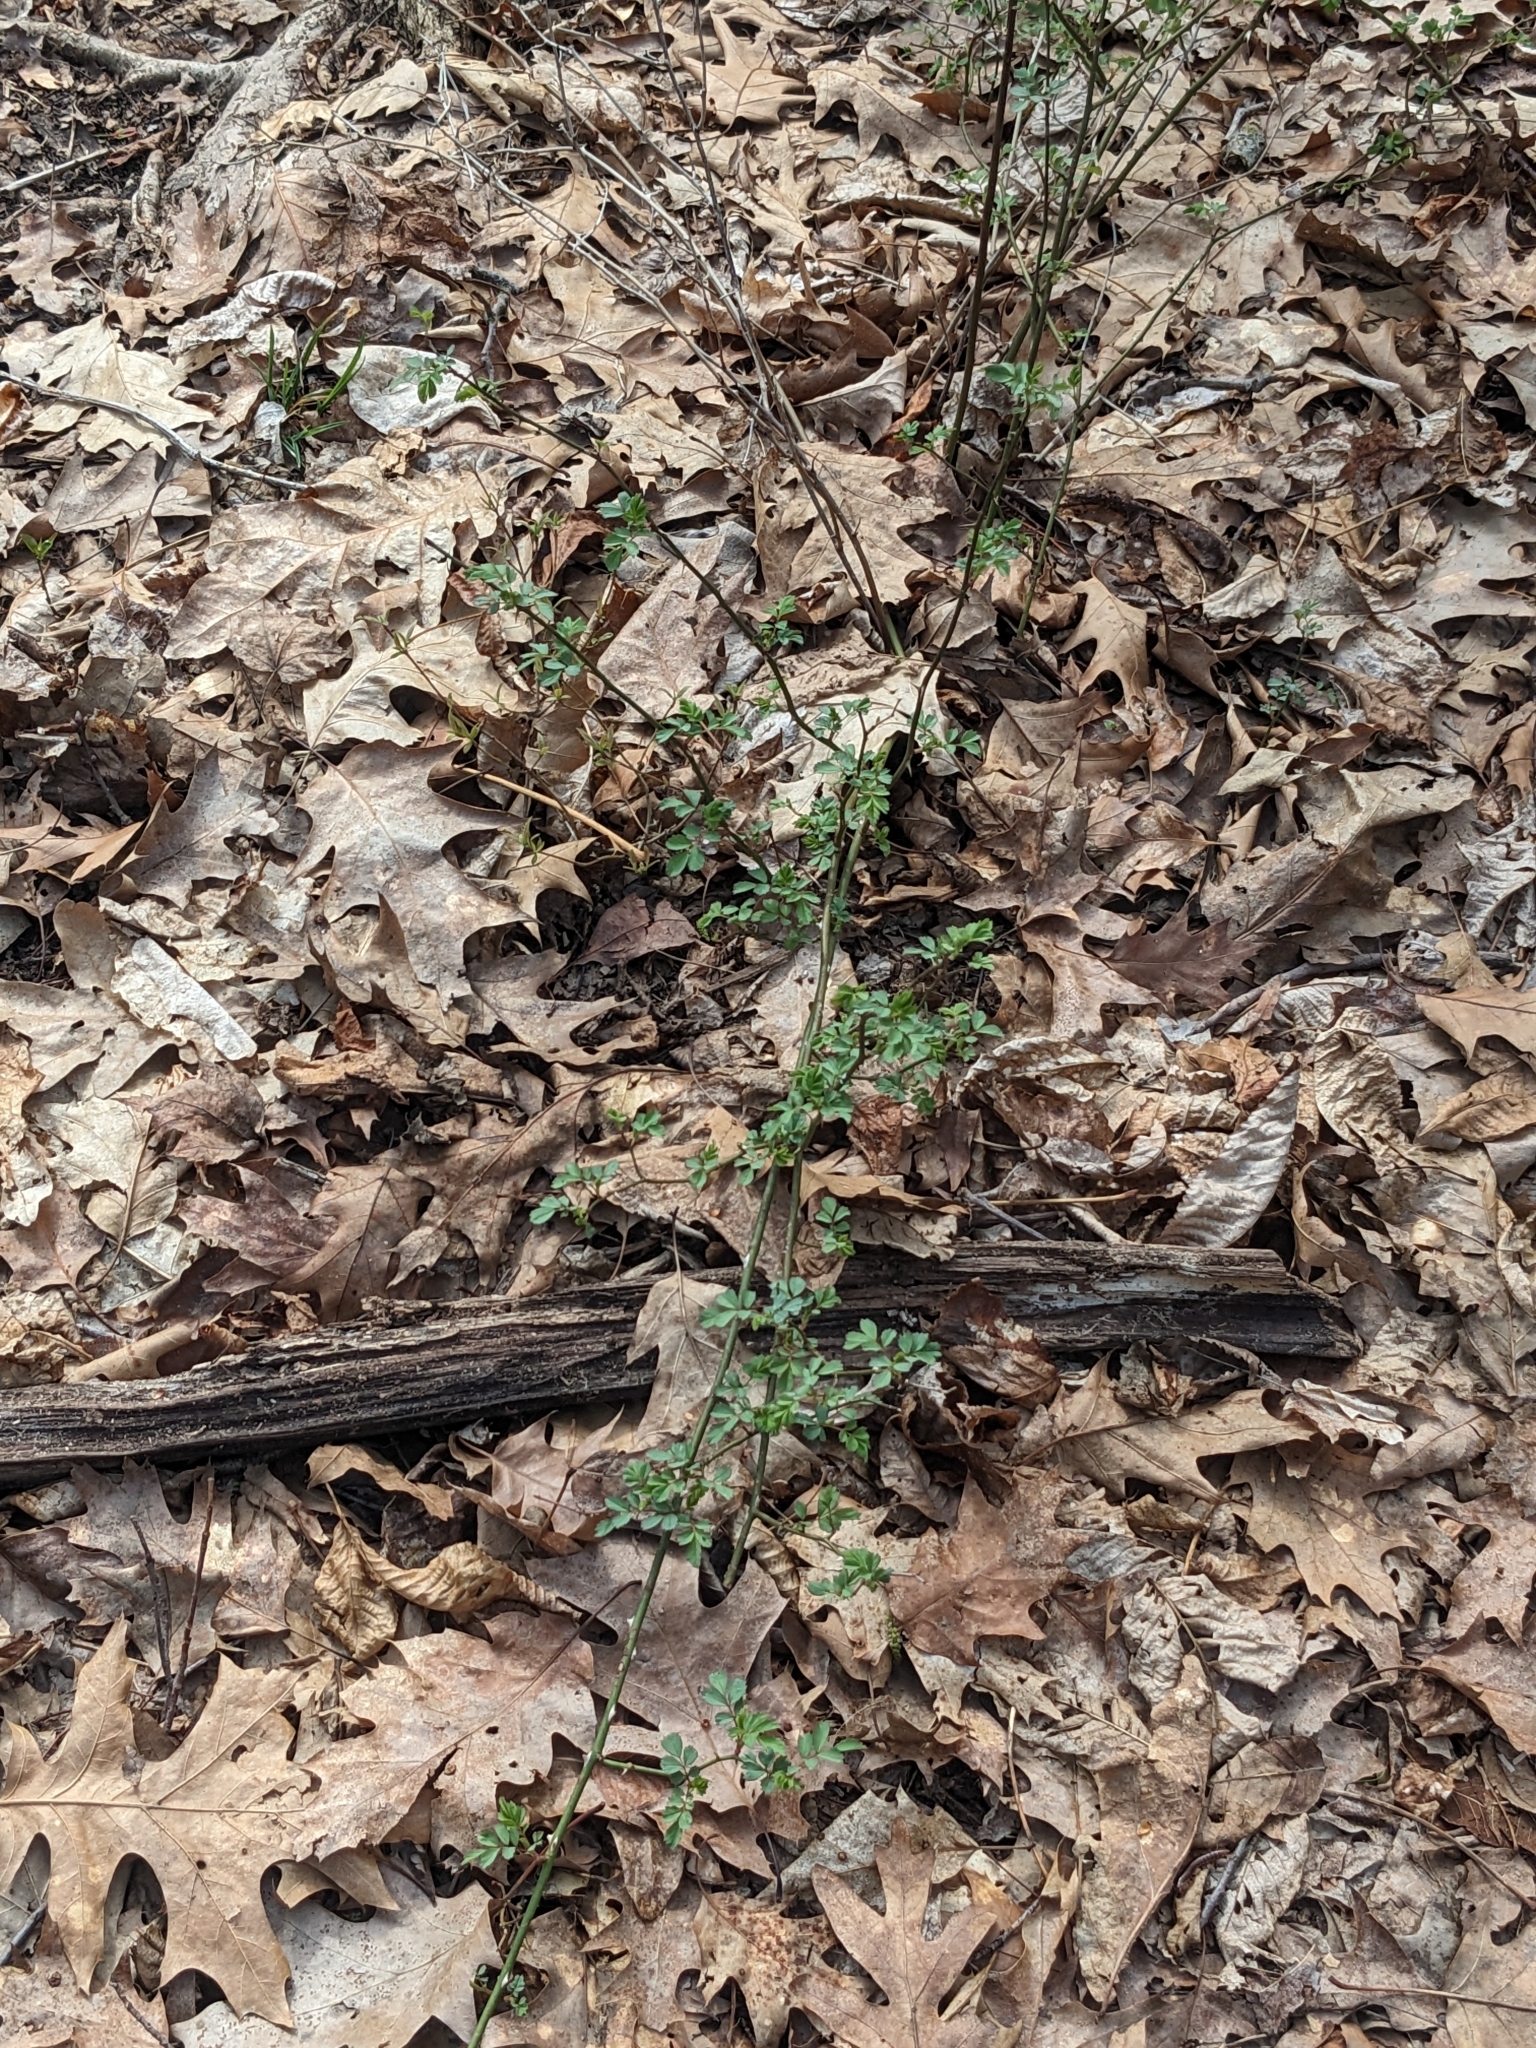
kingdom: Plantae
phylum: Tracheophyta
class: Magnoliopsida
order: Rosales
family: Rosaceae
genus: Rubus
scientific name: Rubus occidentalis
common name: Black raspberry
